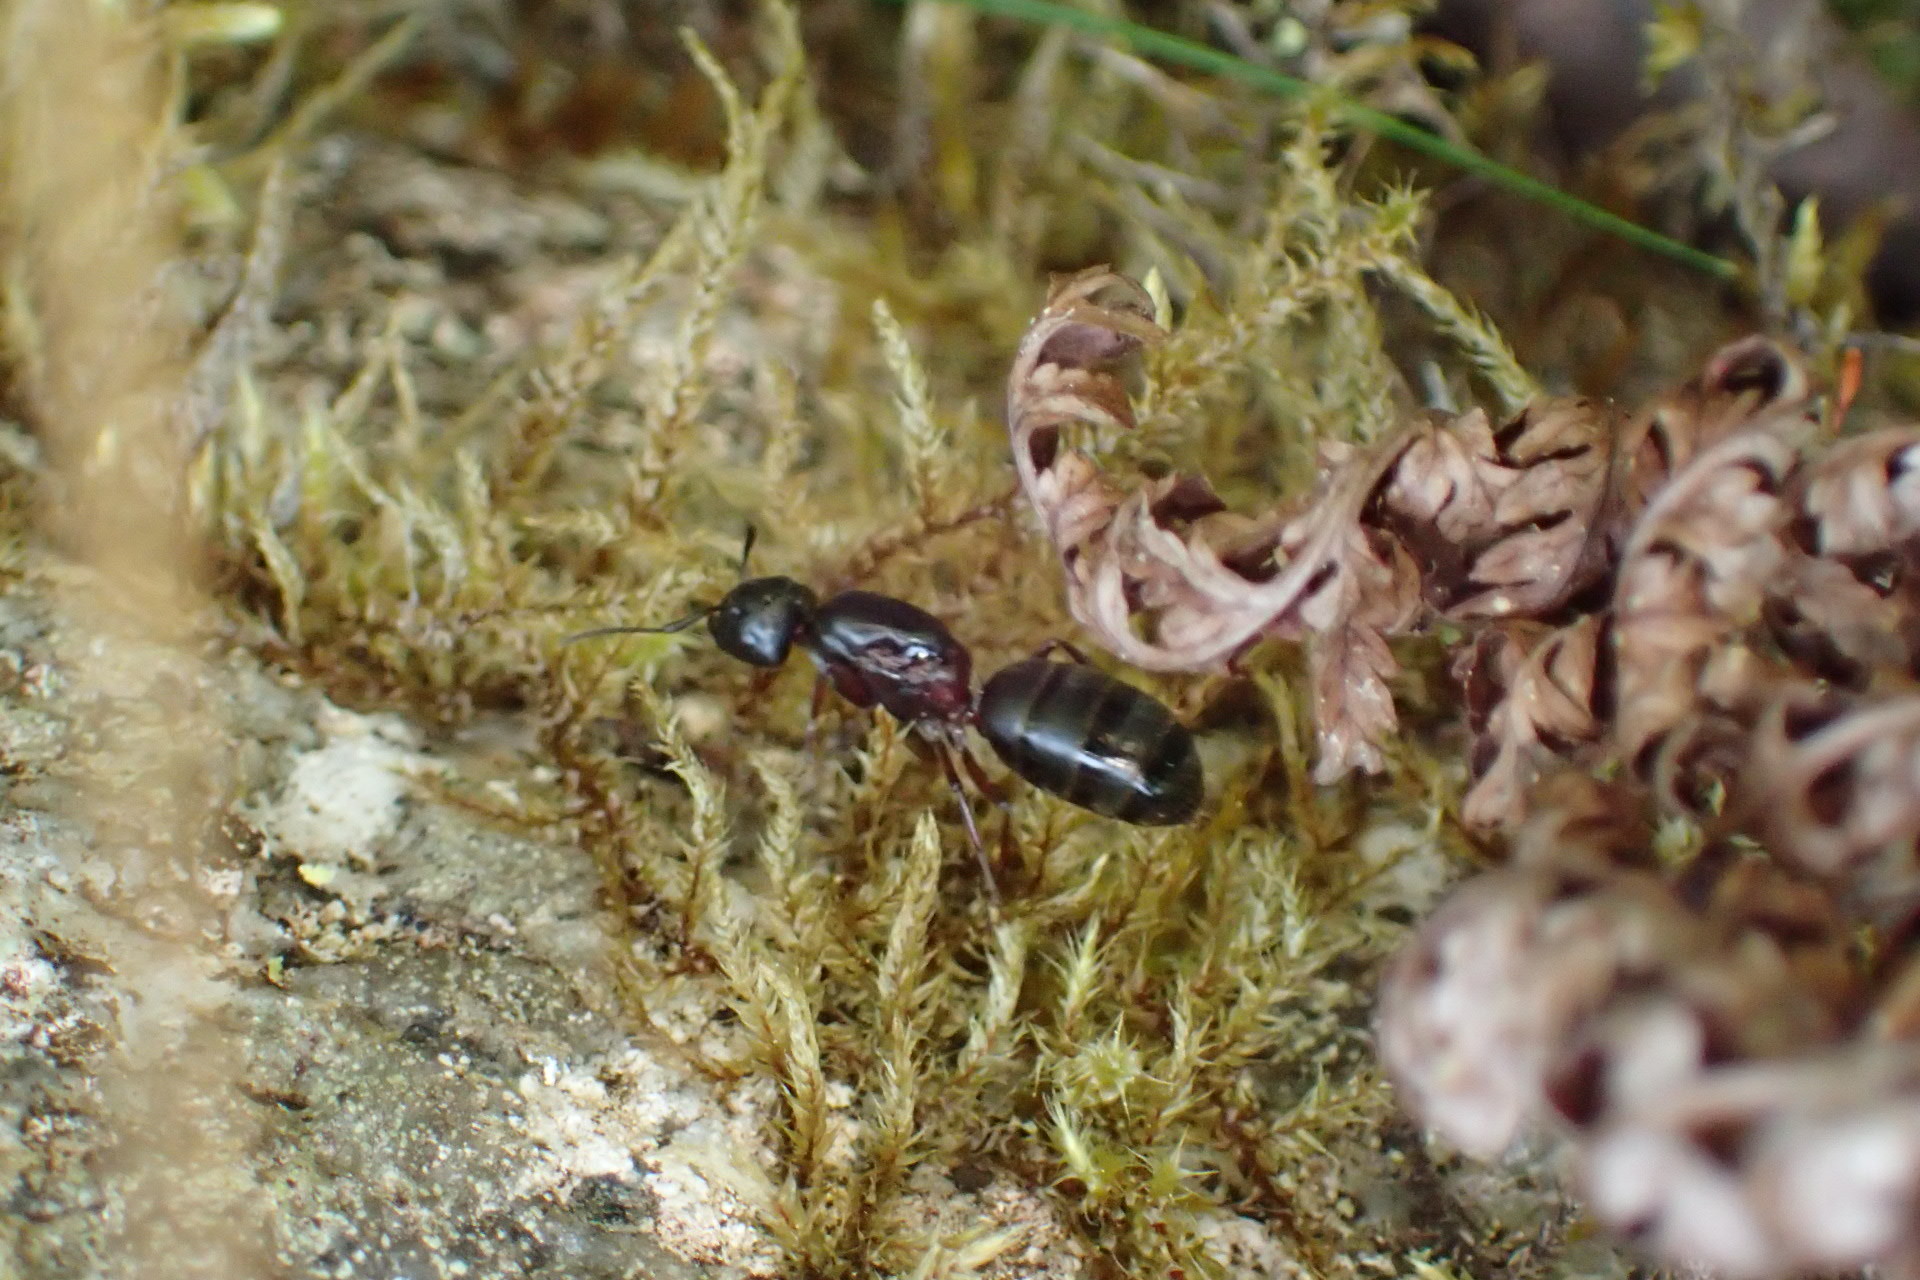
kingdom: Animalia
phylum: Arthropoda
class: Insecta
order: Hymenoptera
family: Formicidae
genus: Camponotus
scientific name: Camponotus herculeanus
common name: Hercules ant
